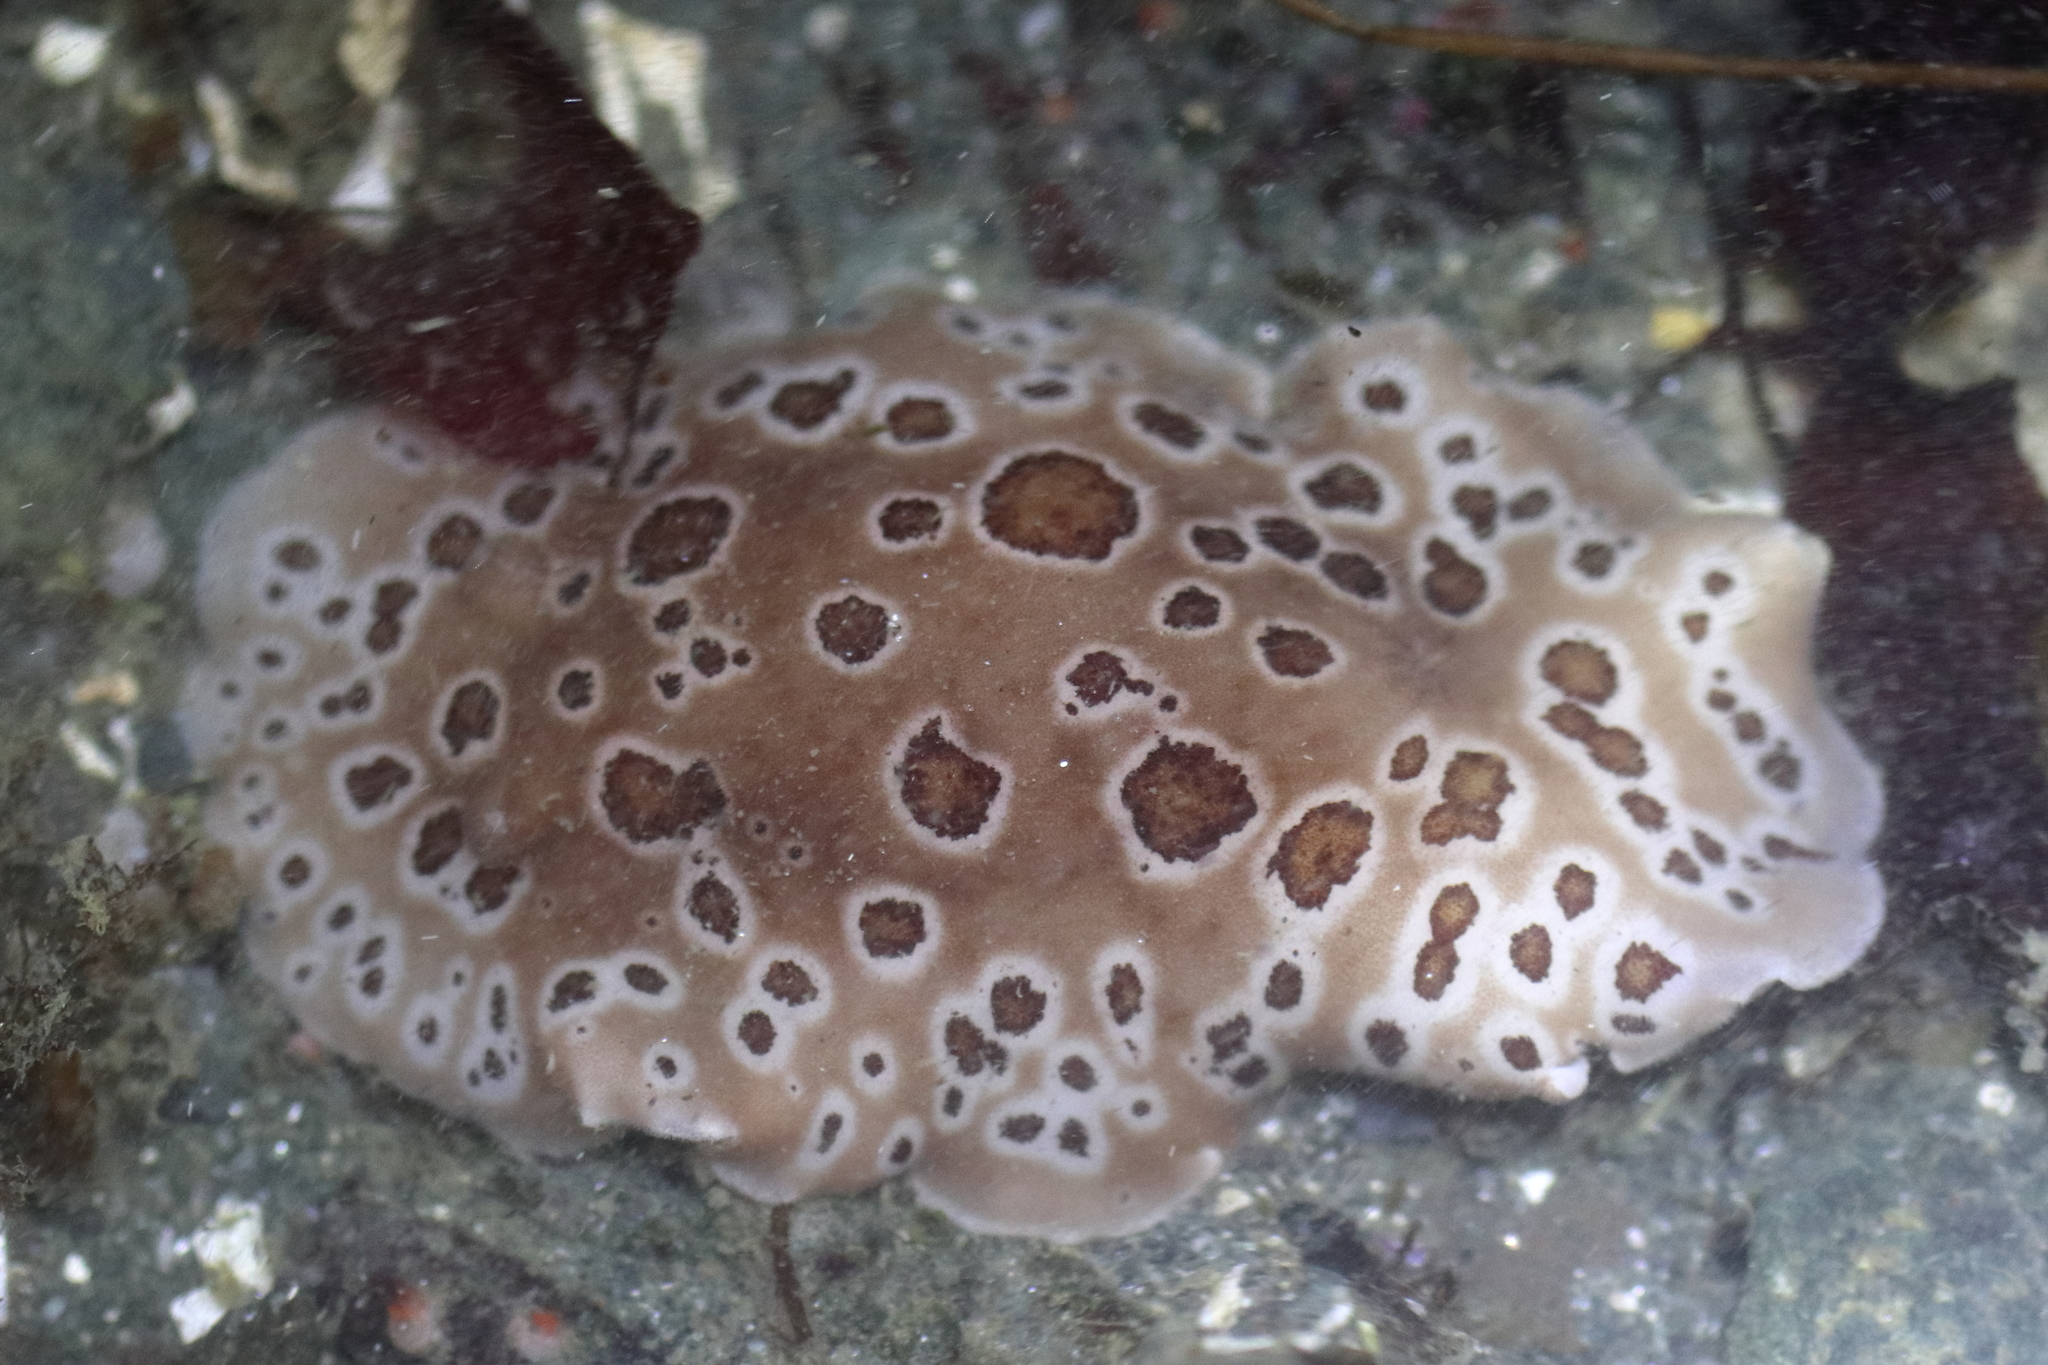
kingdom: Animalia
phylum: Mollusca
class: Gastropoda
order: Nudibranchia
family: Discodorididae
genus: Diaulula
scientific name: Diaulula odonoghuei
